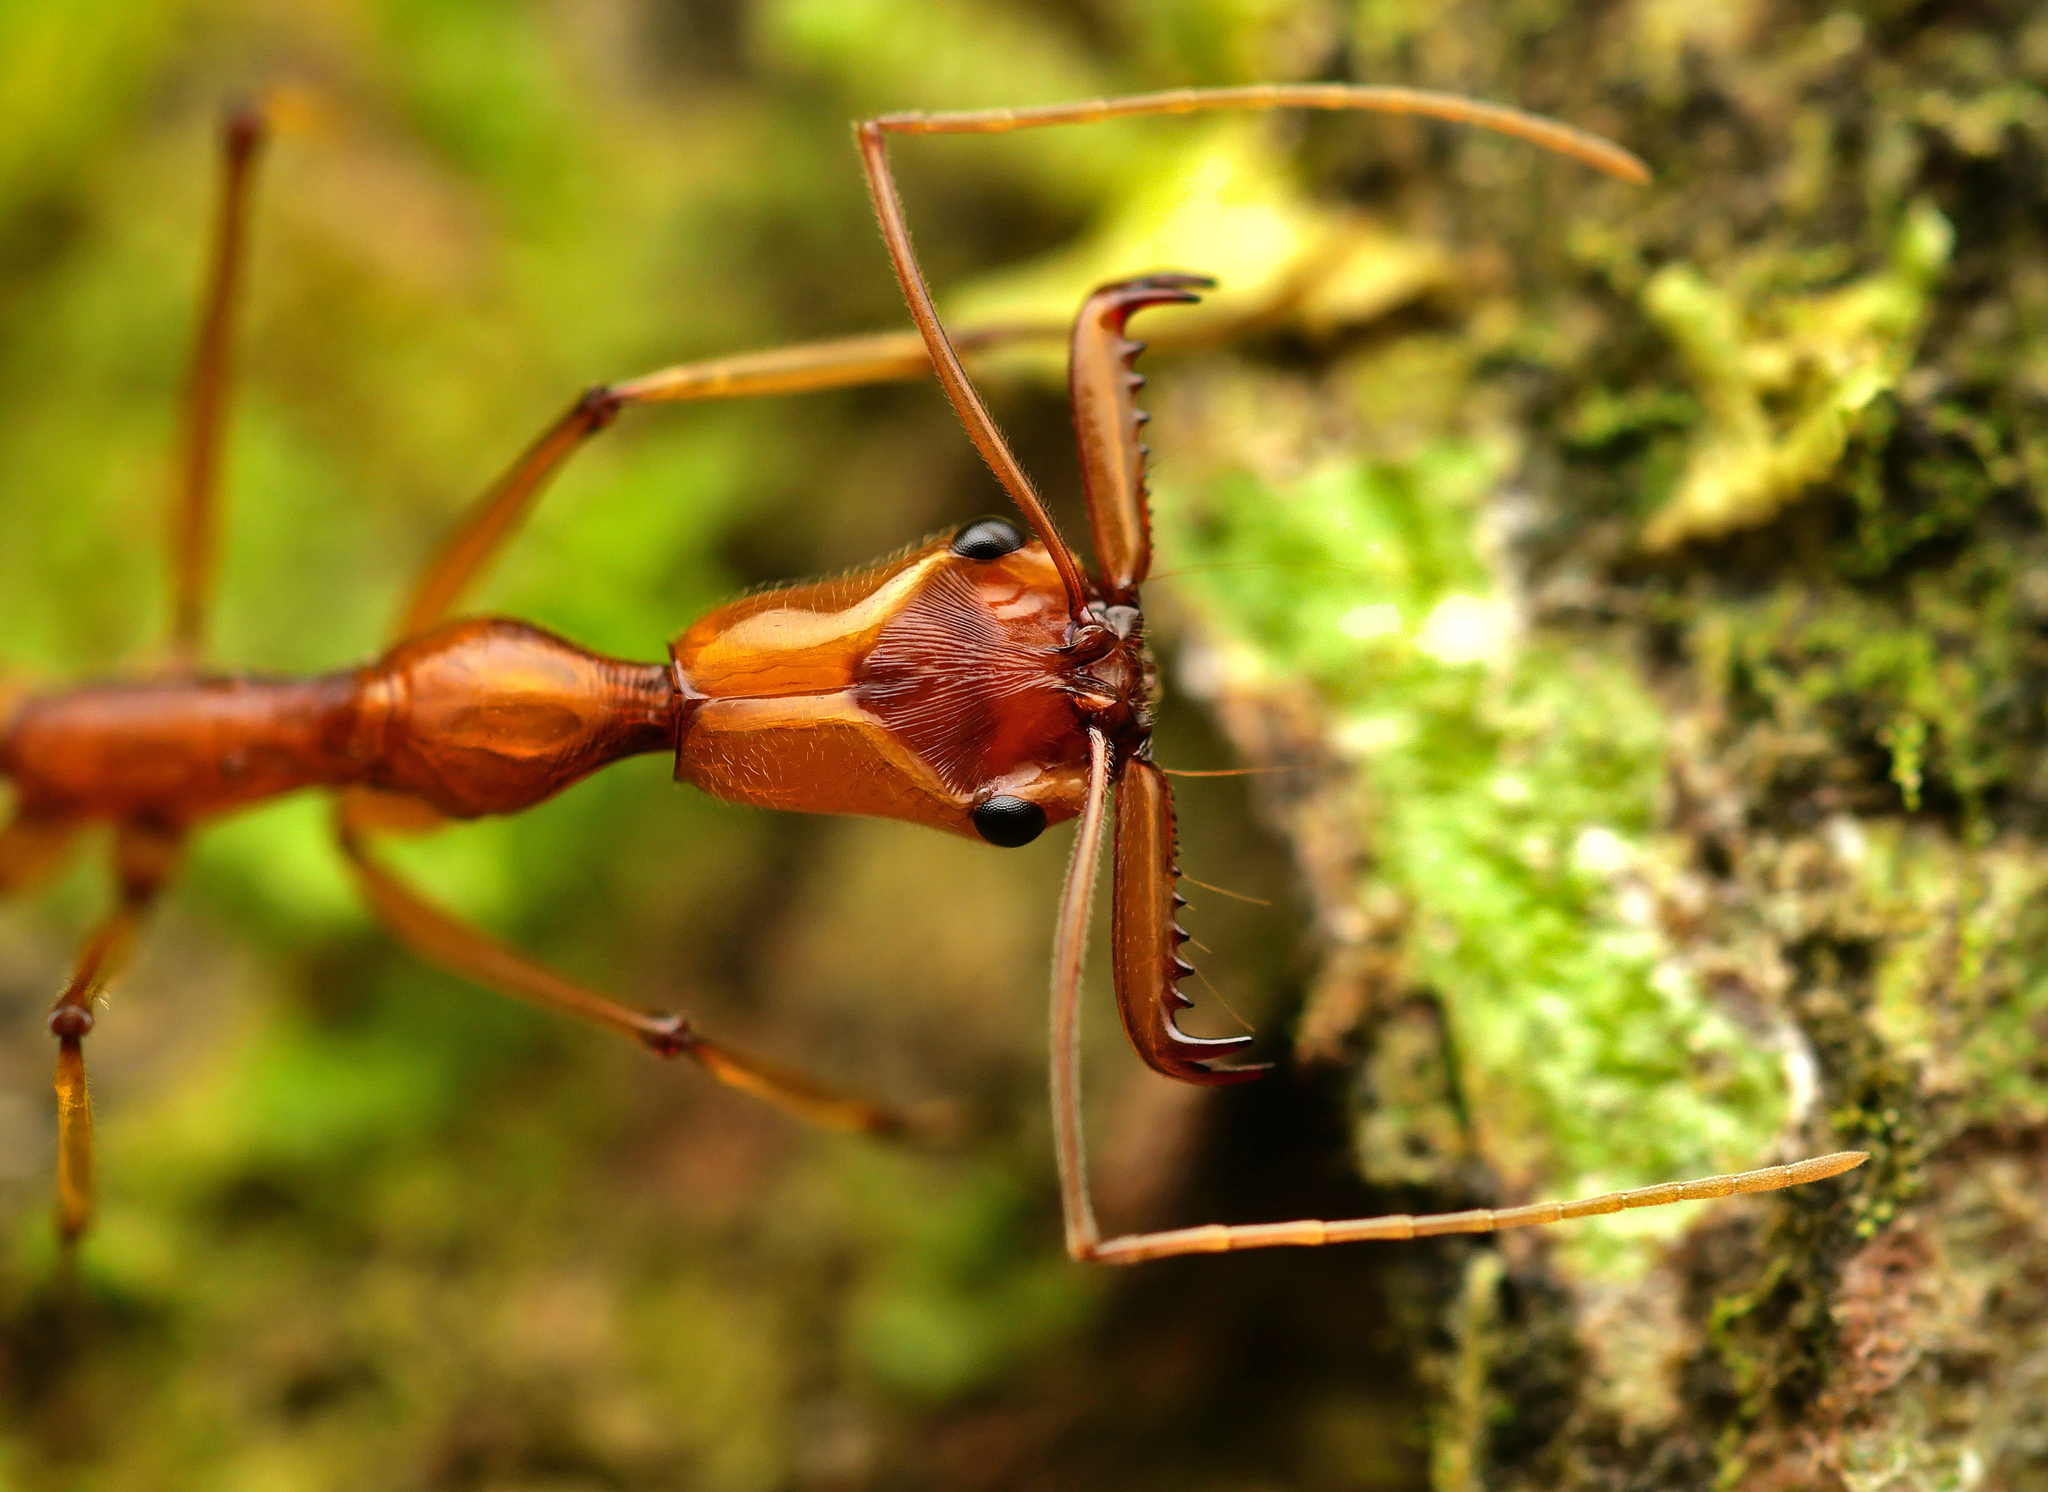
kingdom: Animalia
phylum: Arthropoda
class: Insecta
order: Hymenoptera
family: Formicidae
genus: Odontomachus
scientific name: Odontomachus testaceus
